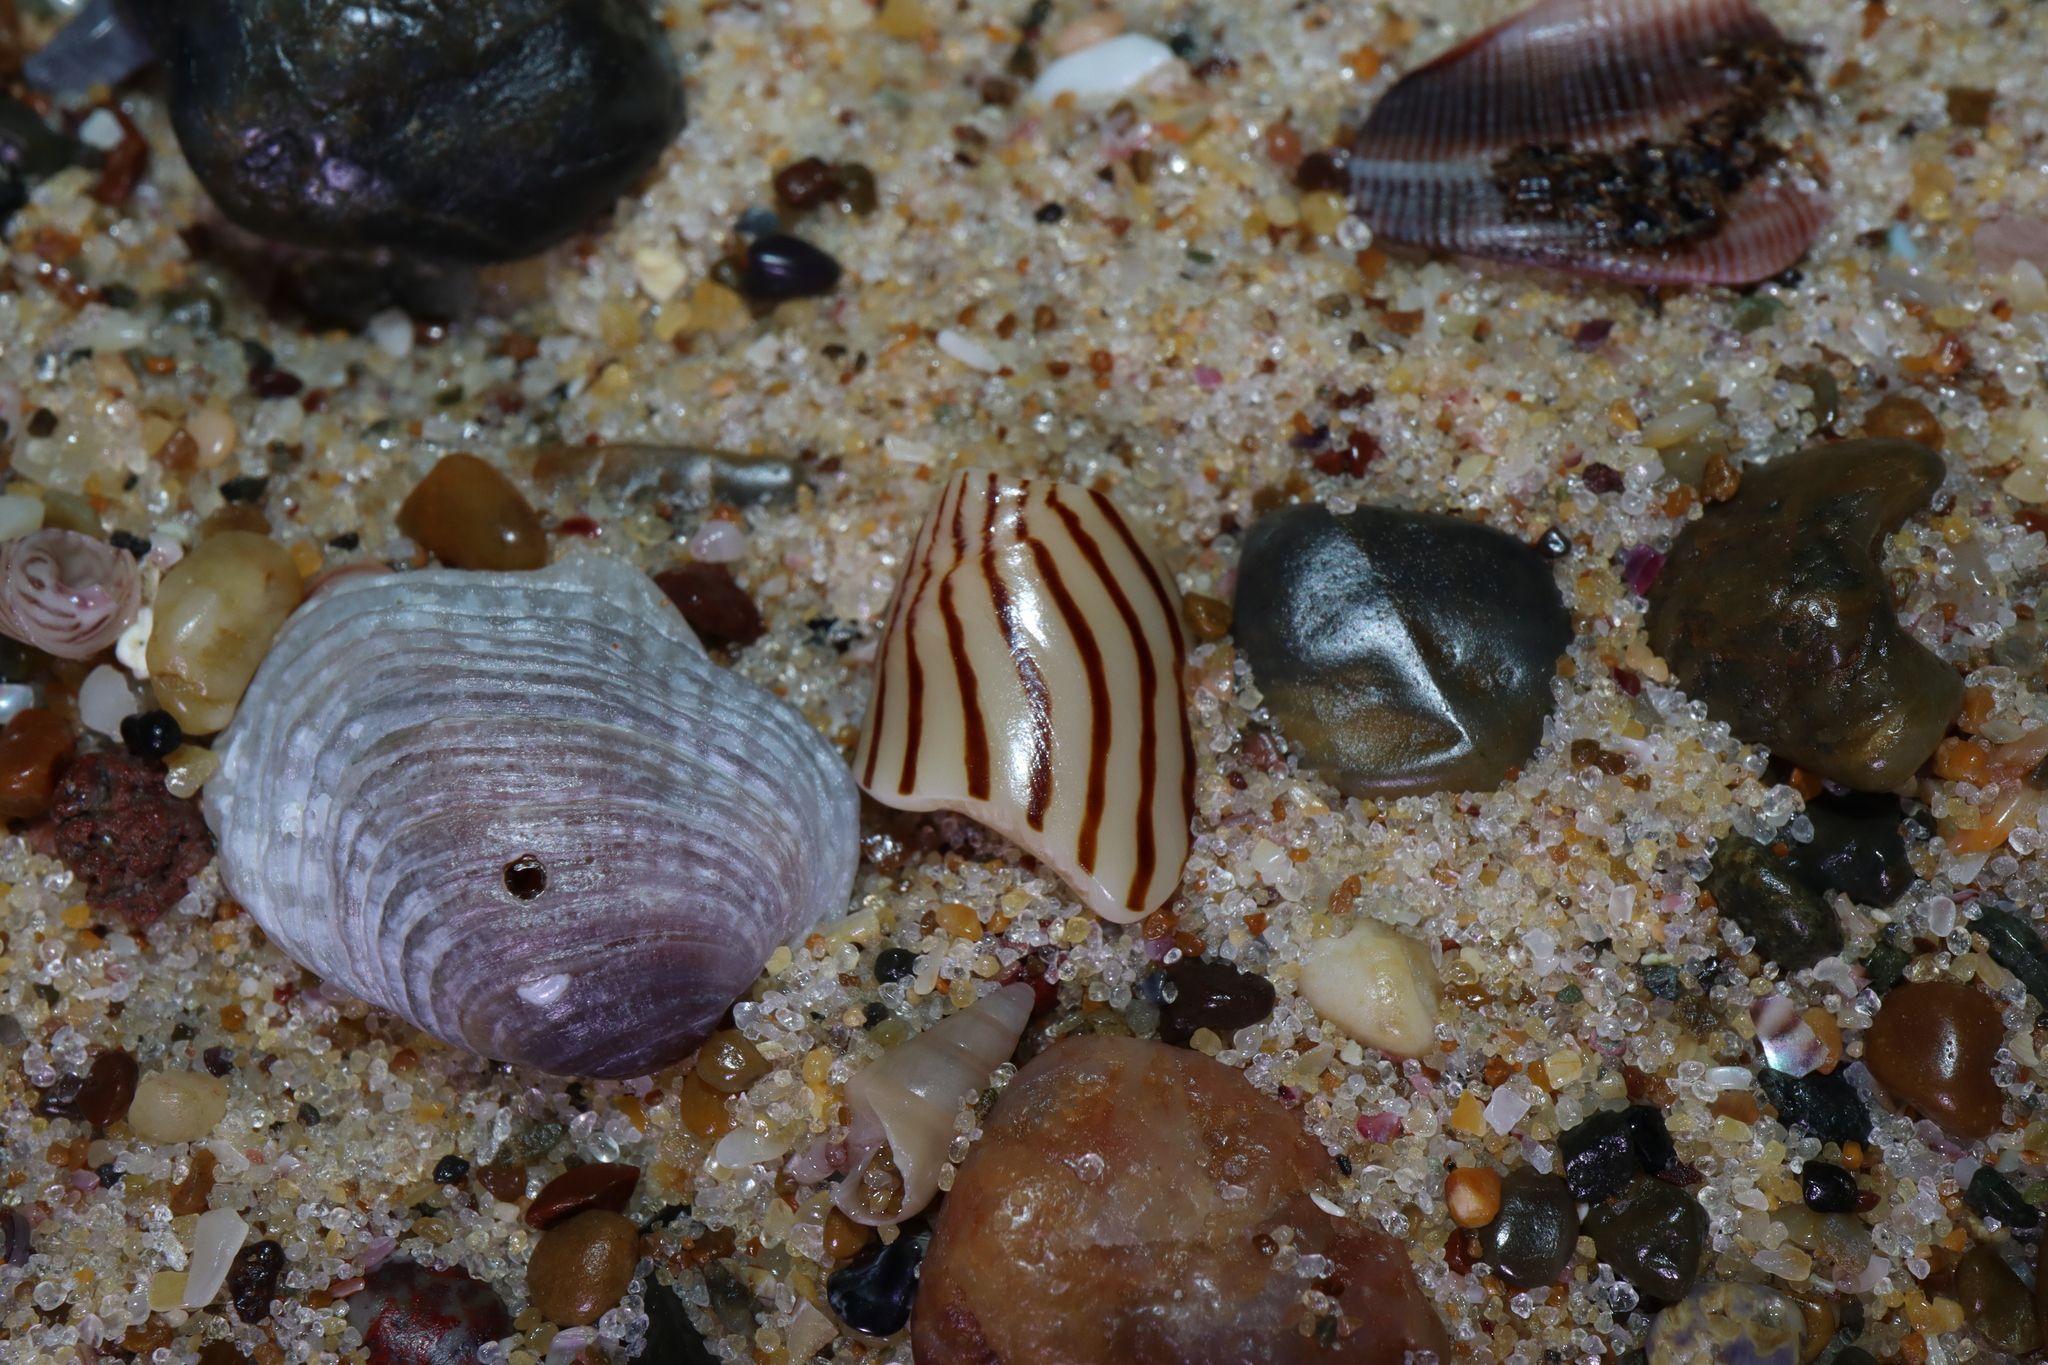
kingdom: Animalia
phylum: Mollusca
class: Gastropoda
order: Neogastropoda
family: Volutidae
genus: Amoria
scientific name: Amoria zebra
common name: Zebra volute
